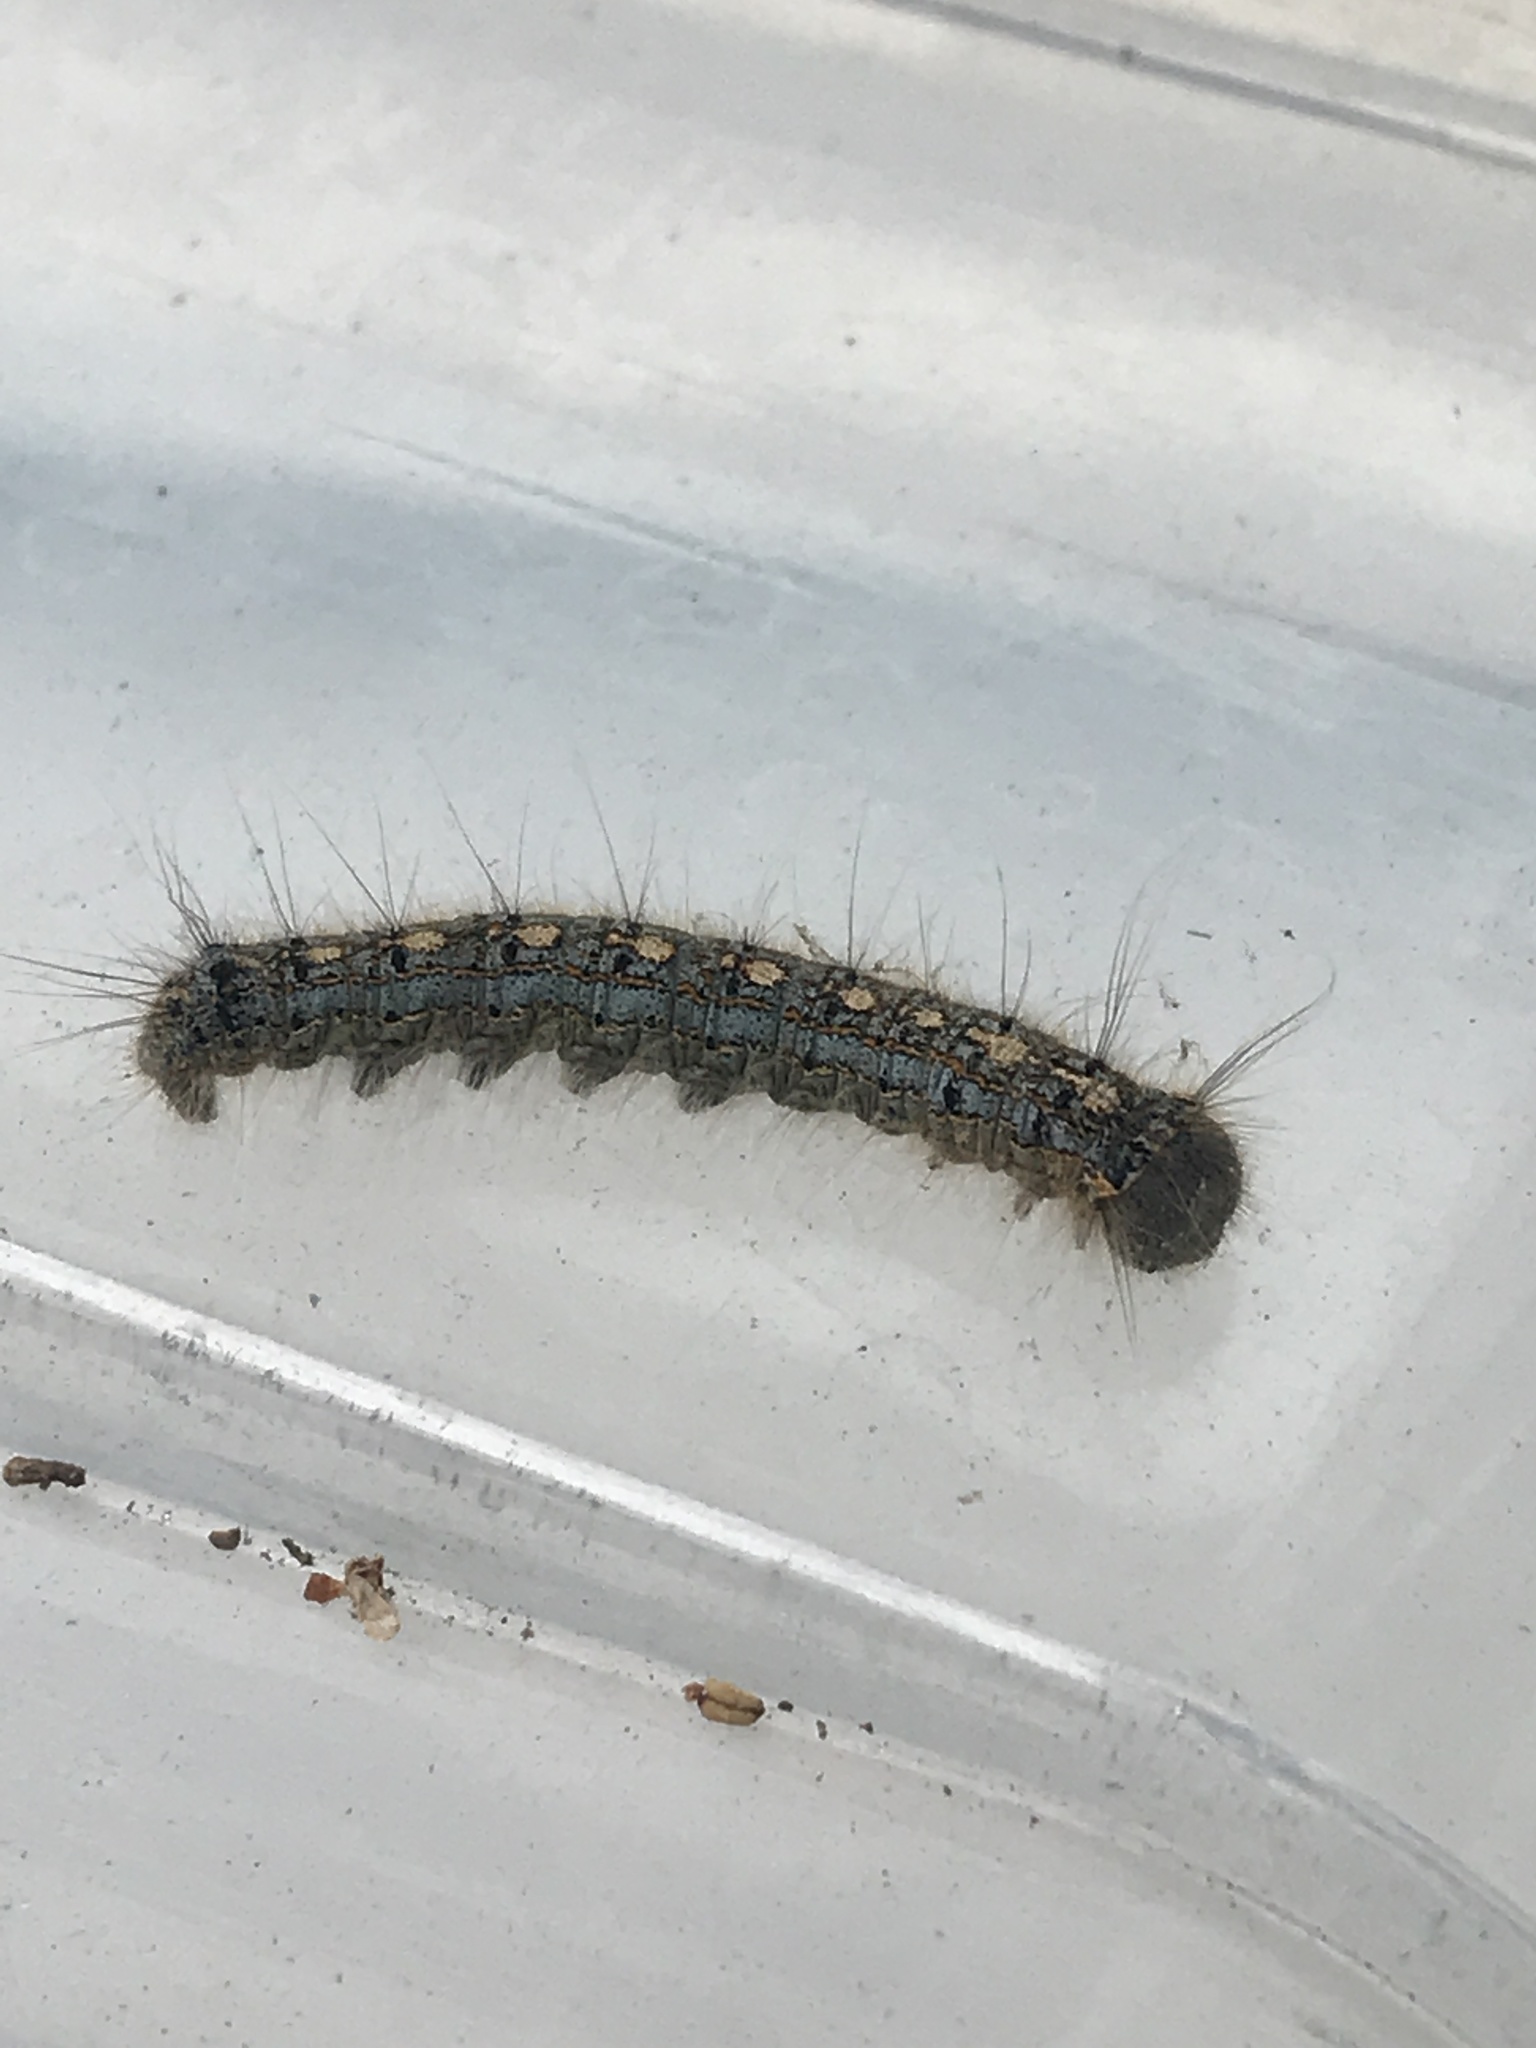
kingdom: Animalia
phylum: Arthropoda
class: Insecta
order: Lepidoptera
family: Lasiocampidae
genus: Malacosoma
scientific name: Malacosoma disstria
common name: Forest tent caterpillar
